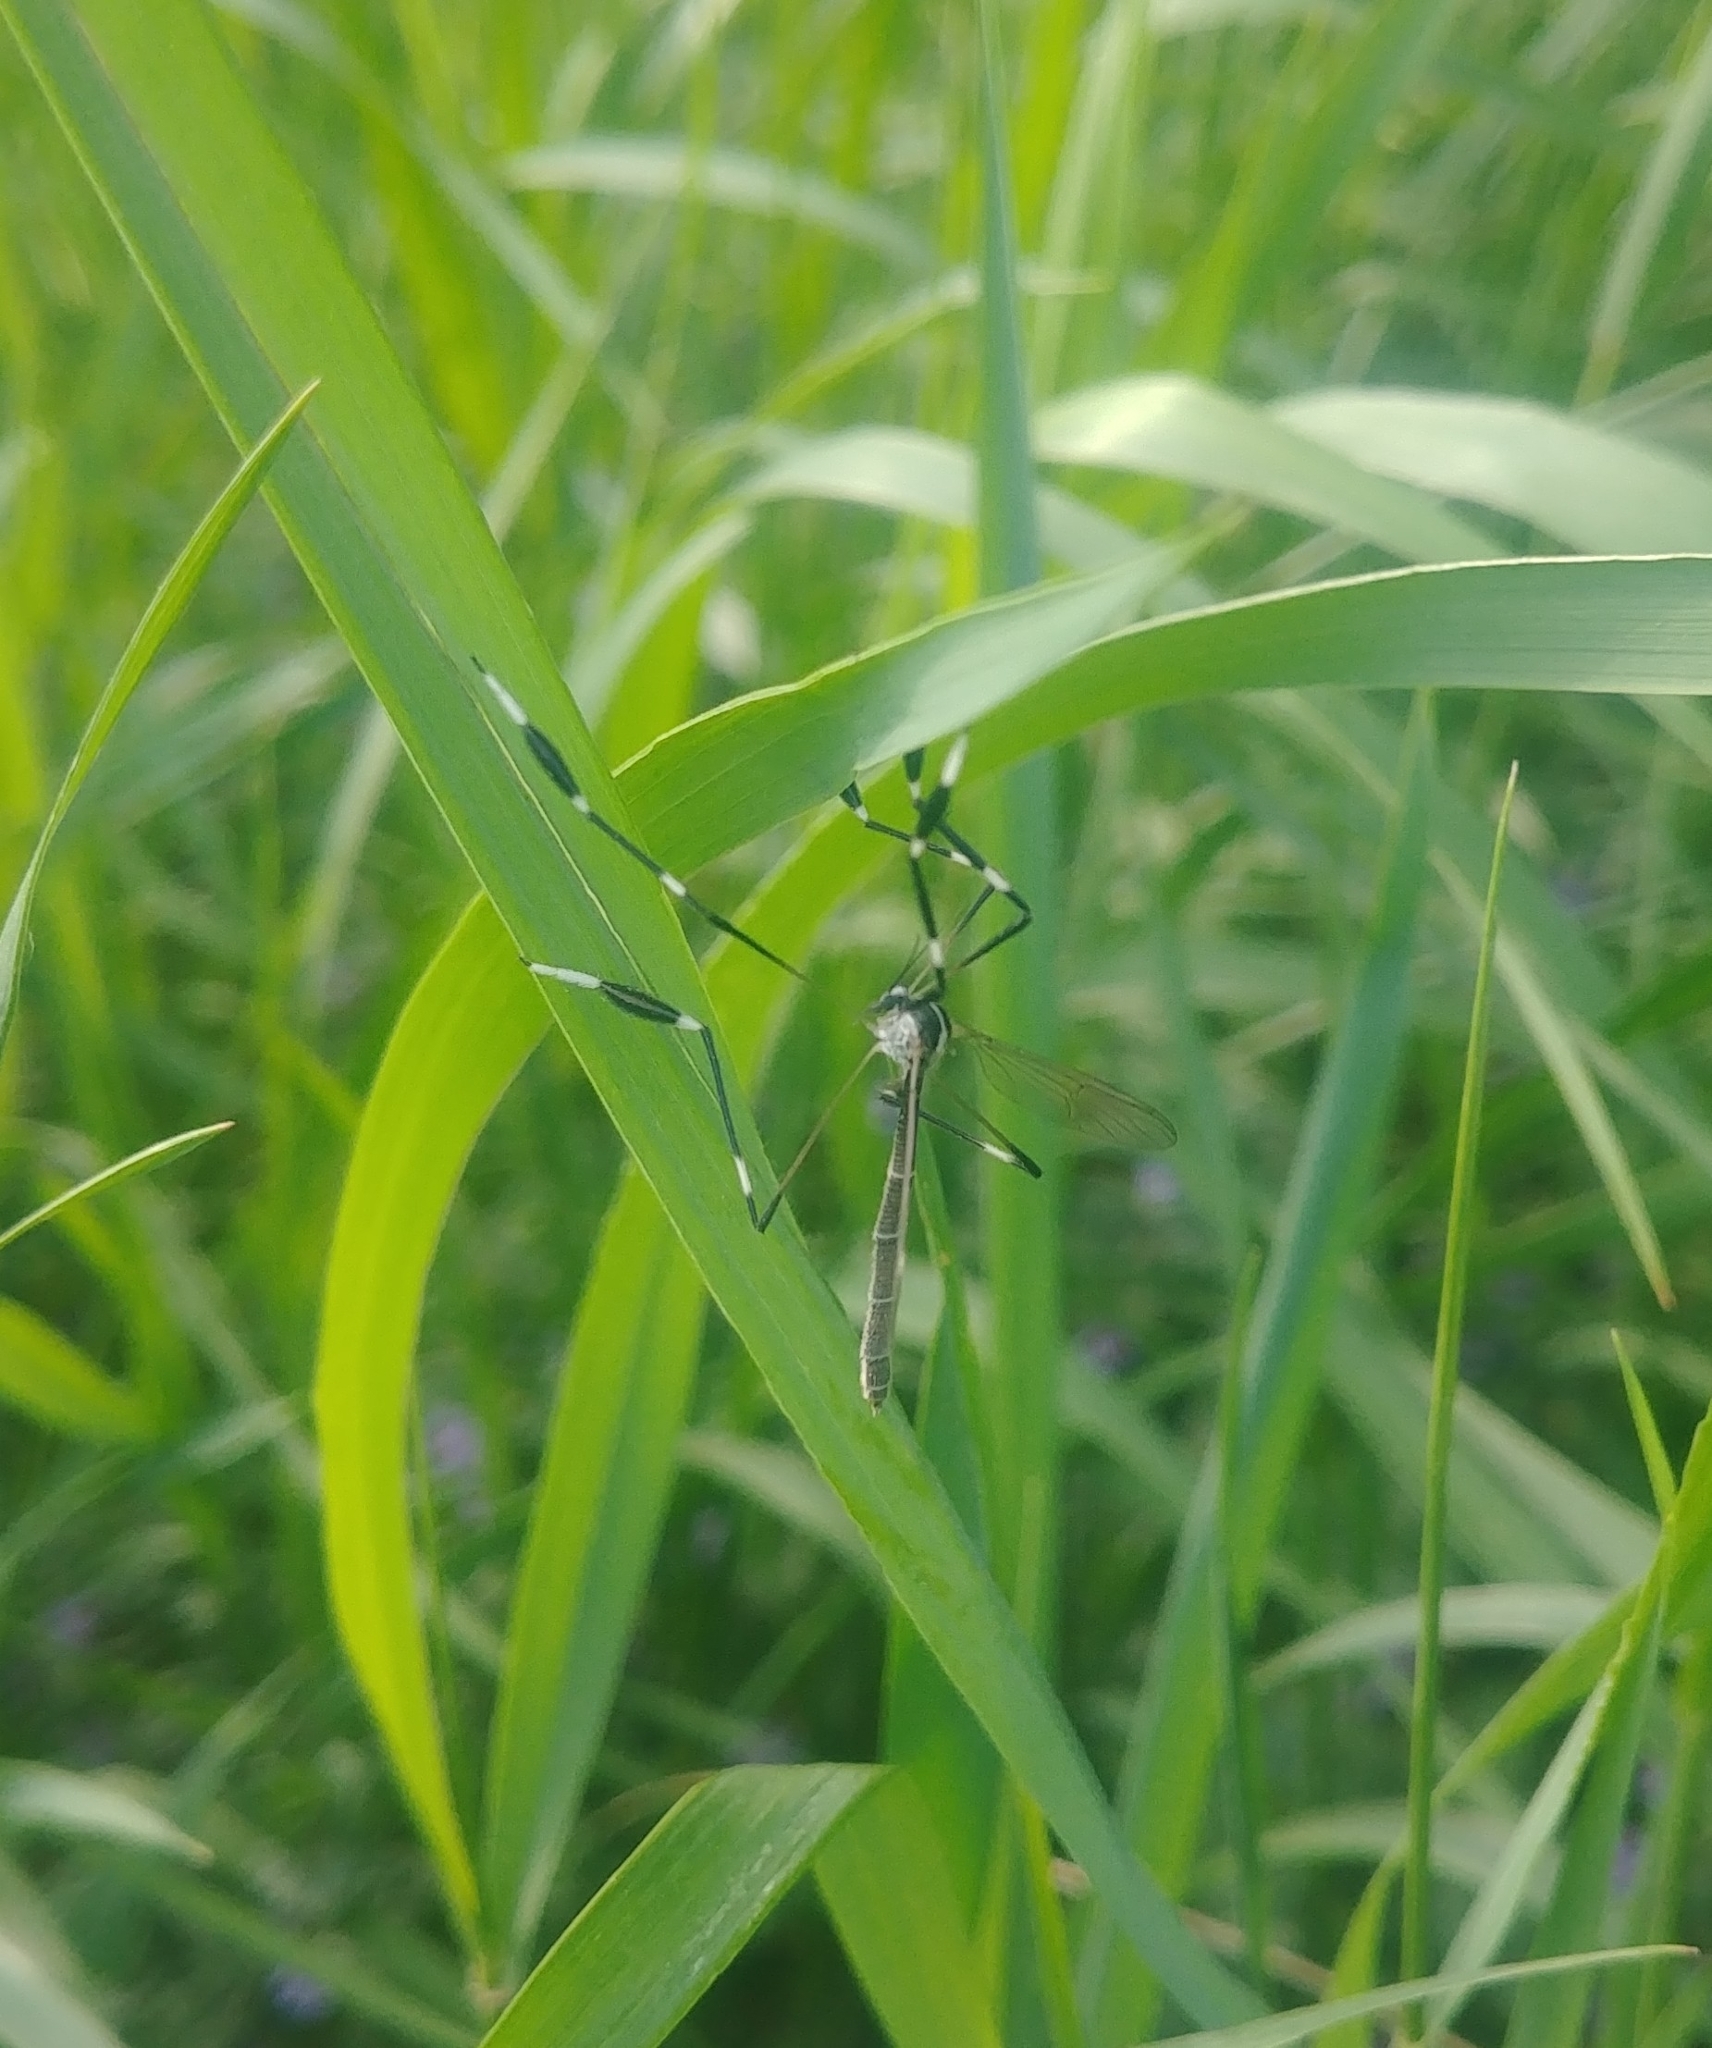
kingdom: Animalia
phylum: Arthropoda
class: Insecta
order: Diptera
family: Ptychopteridae
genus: Bittacomorpha
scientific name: Bittacomorpha clavipes
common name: Eastern phantom crane fly
